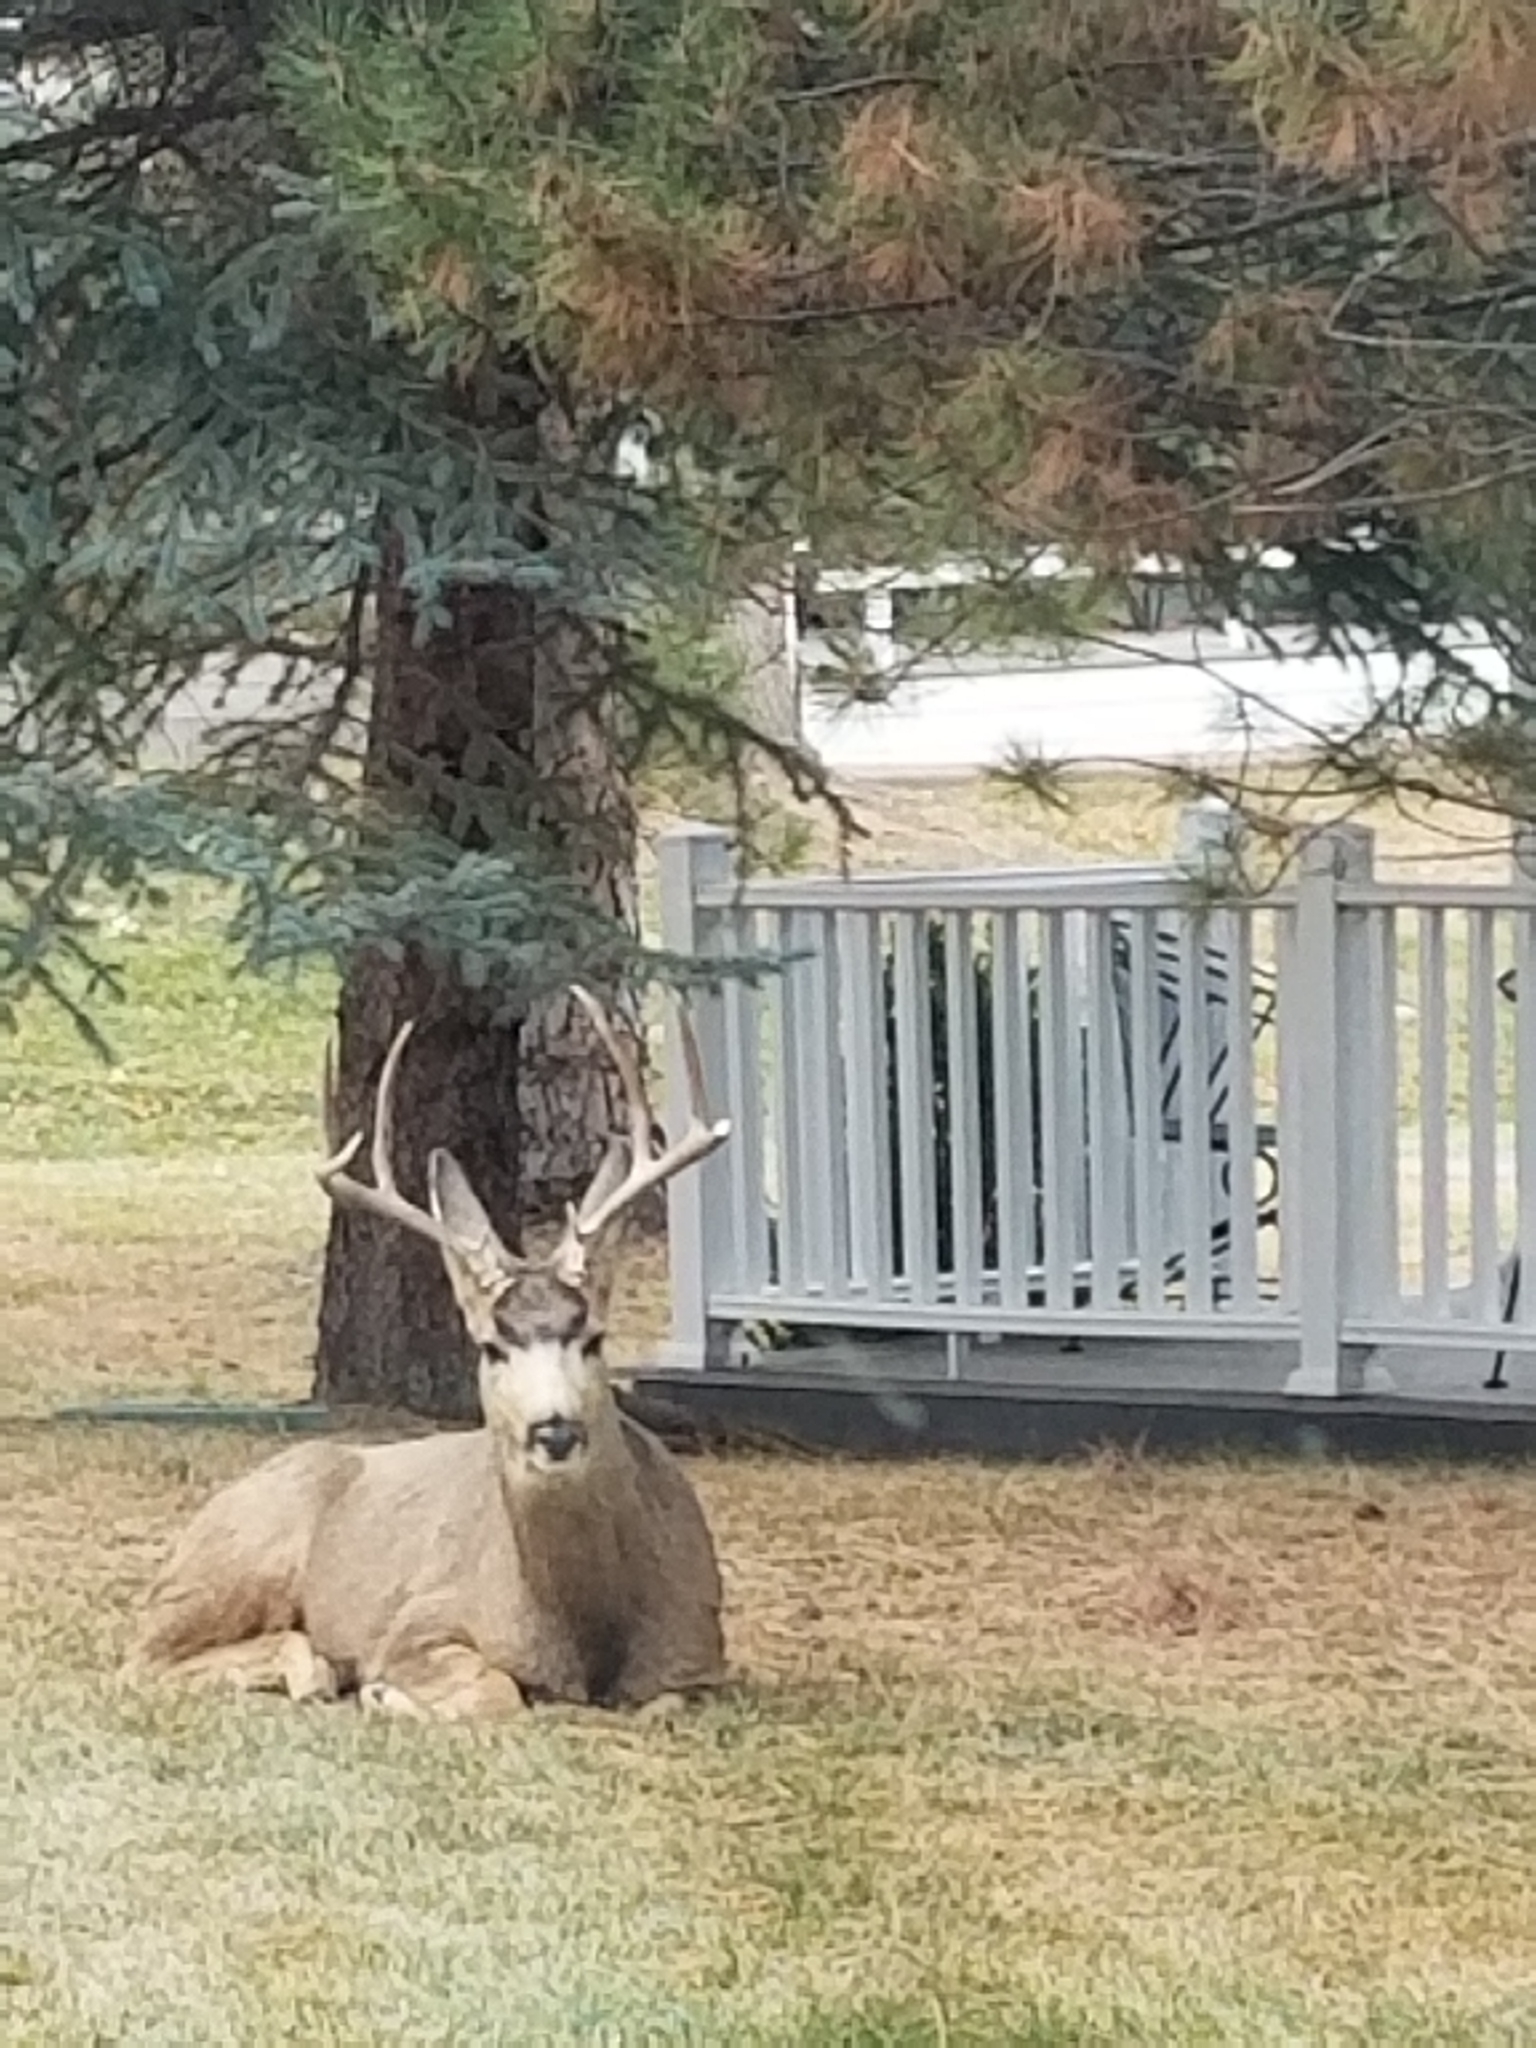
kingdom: Animalia
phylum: Chordata
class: Mammalia
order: Artiodactyla
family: Cervidae
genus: Odocoileus
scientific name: Odocoileus hemionus
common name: Mule deer
